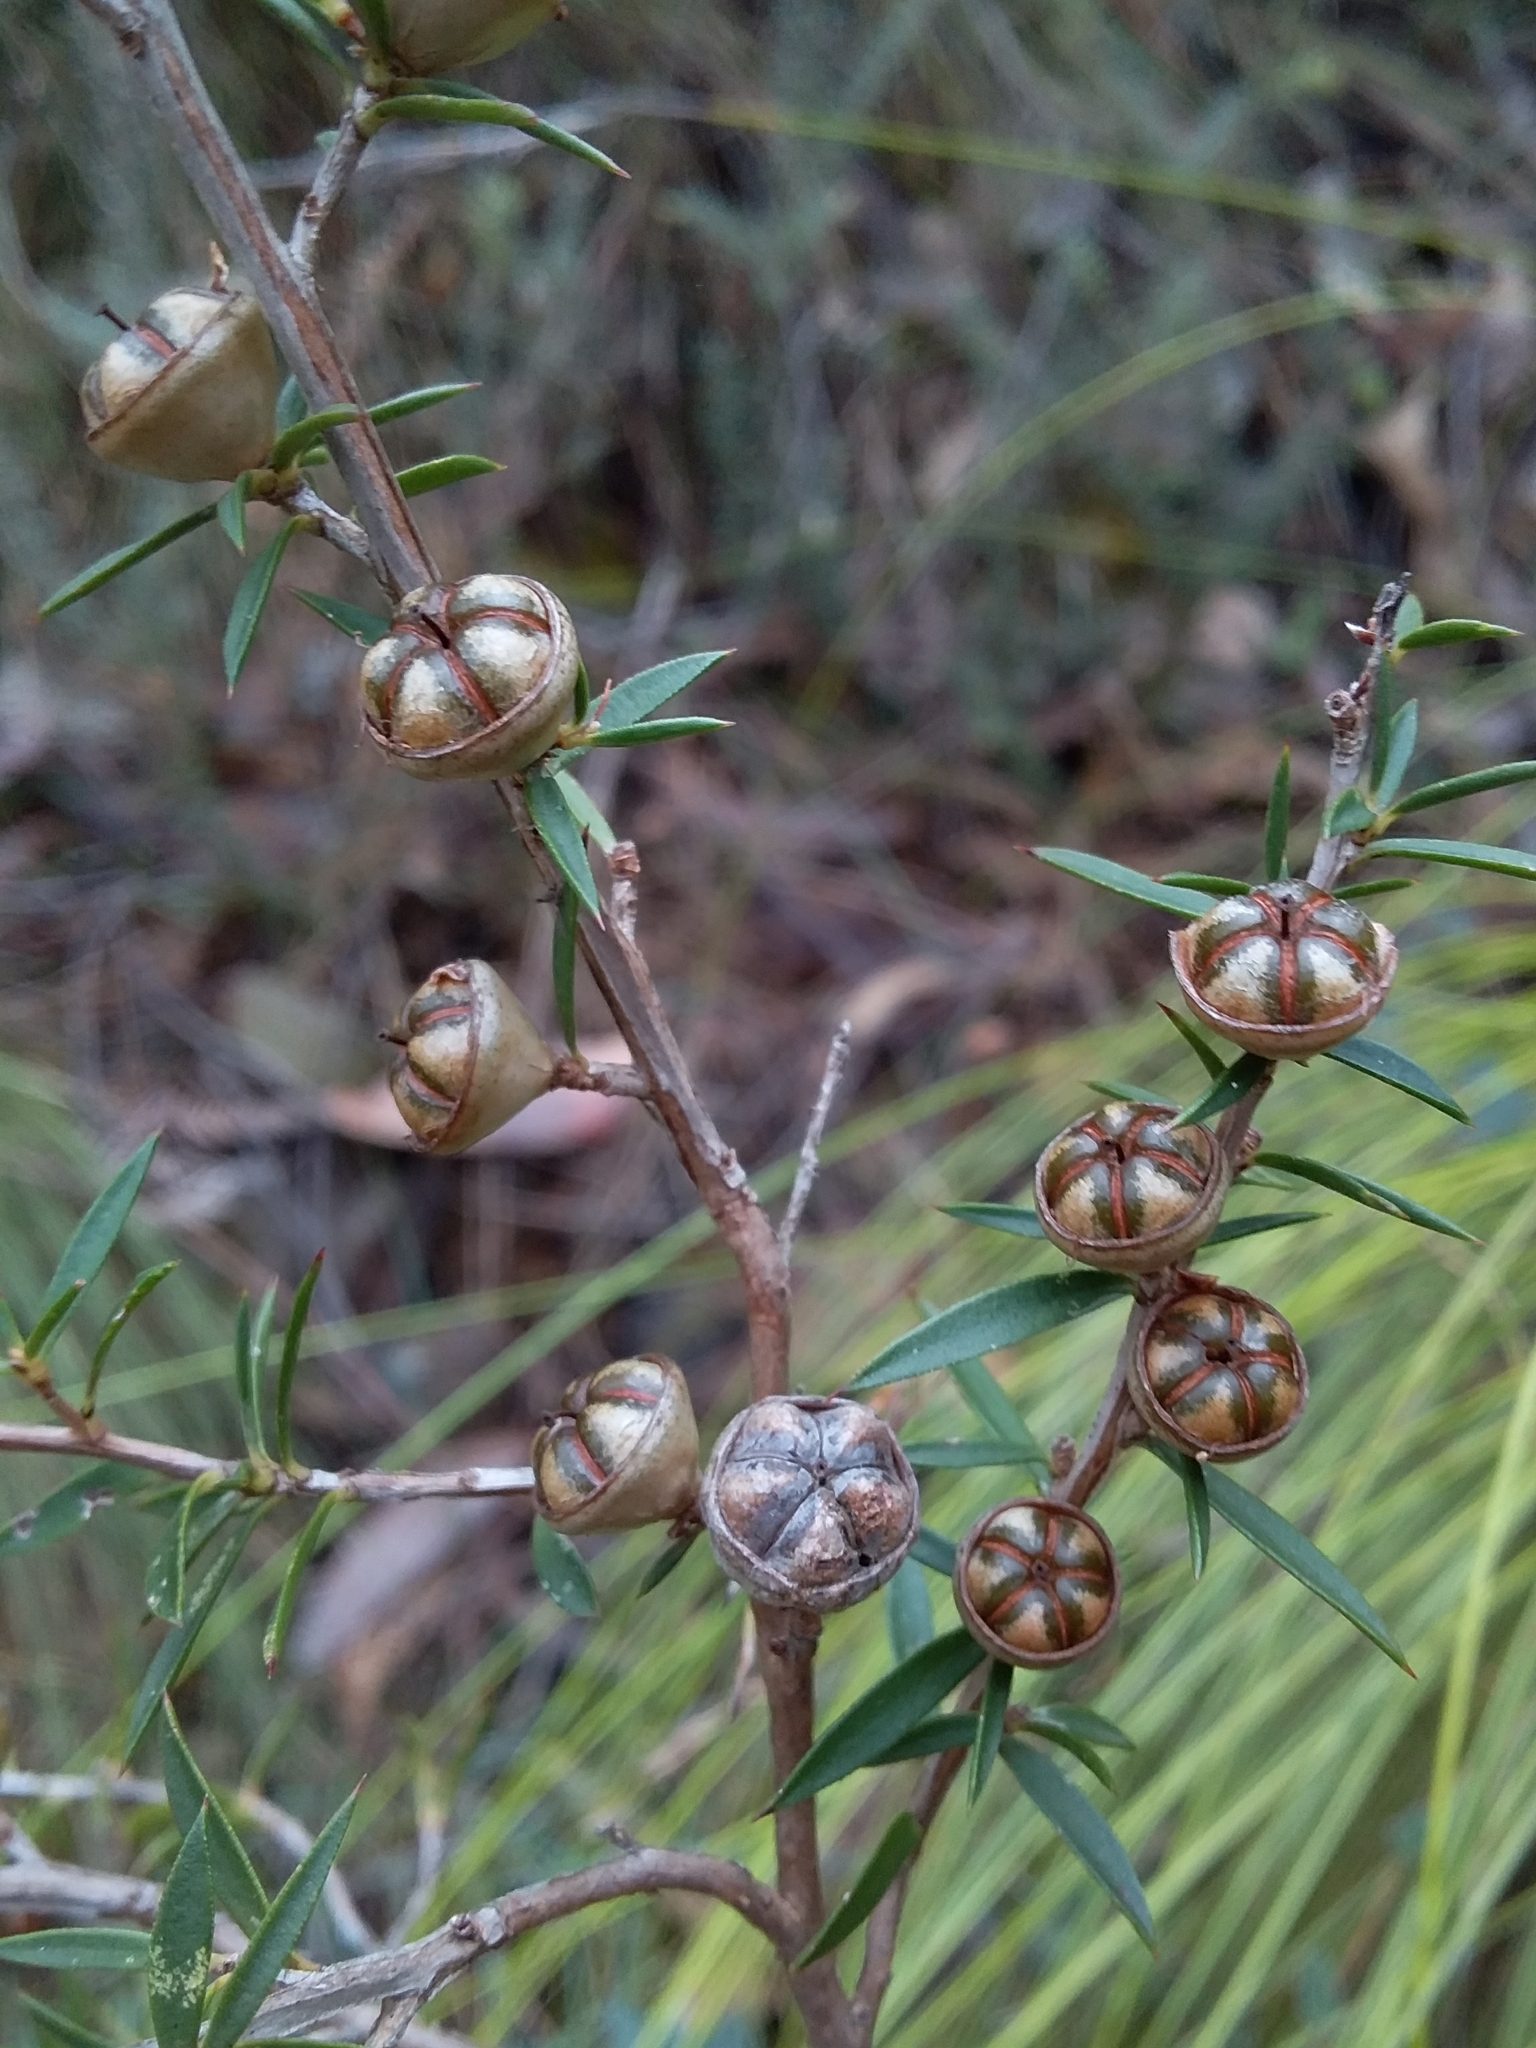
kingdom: Plantae
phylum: Tracheophyta
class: Magnoliopsida
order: Myrtales
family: Myrtaceae
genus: Leptospermum
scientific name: Leptospermum continentale
